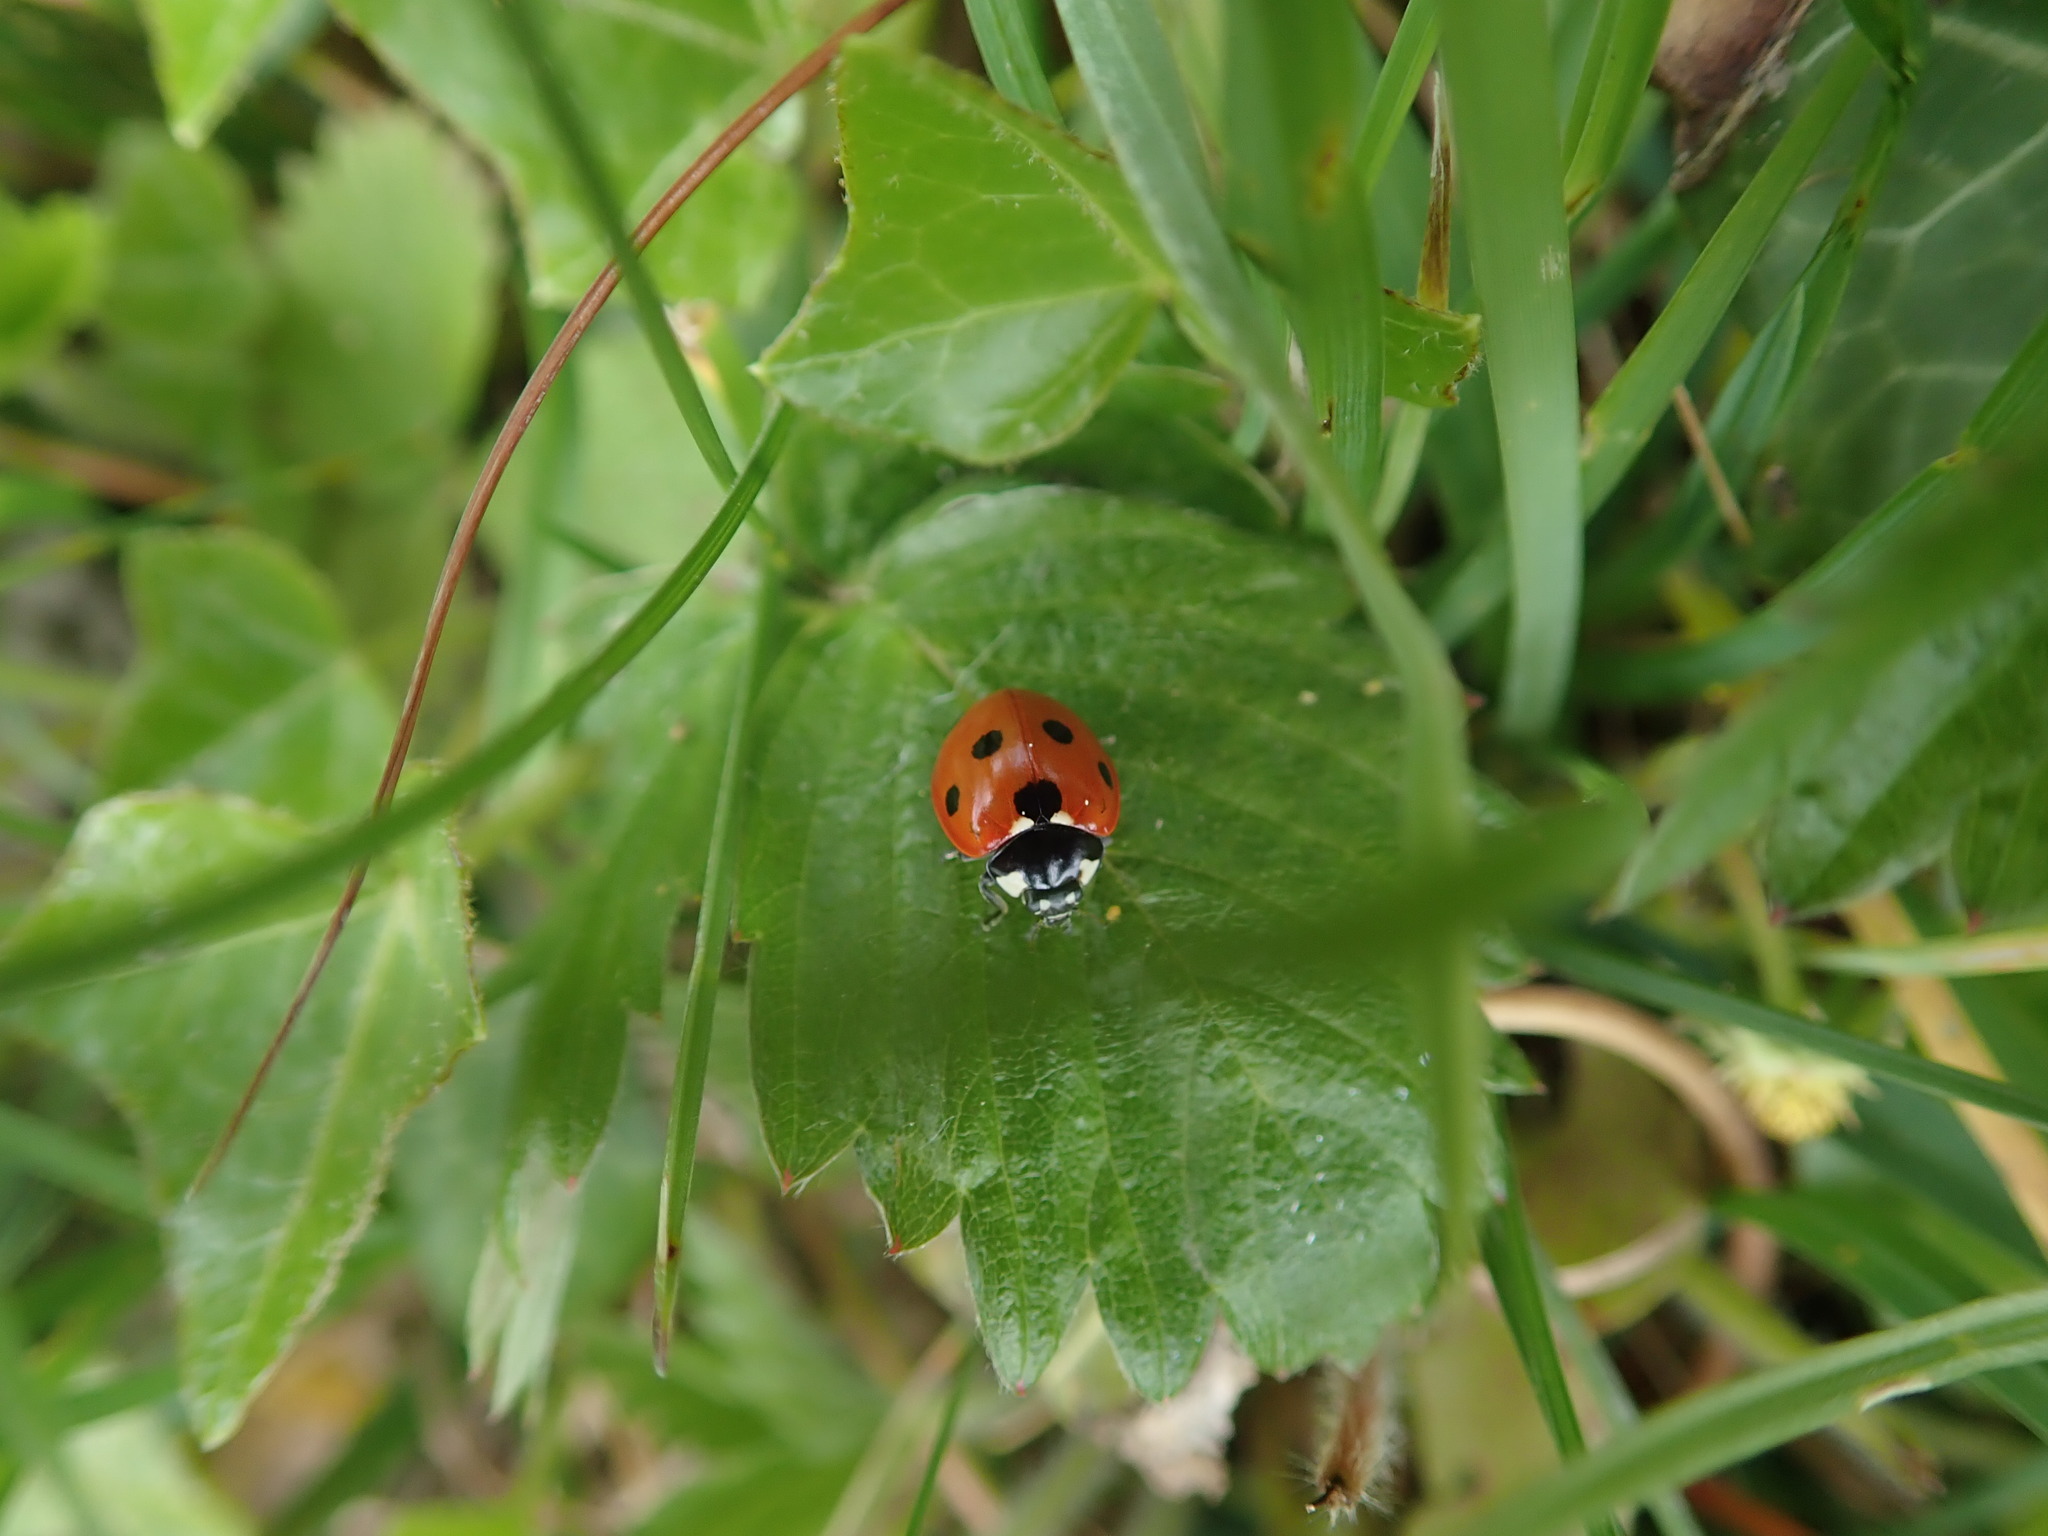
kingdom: Animalia
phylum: Arthropoda
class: Insecta
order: Coleoptera
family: Coccinellidae
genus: Coccinella
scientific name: Coccinella septempunctata
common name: Sevenspotted lady beetle
